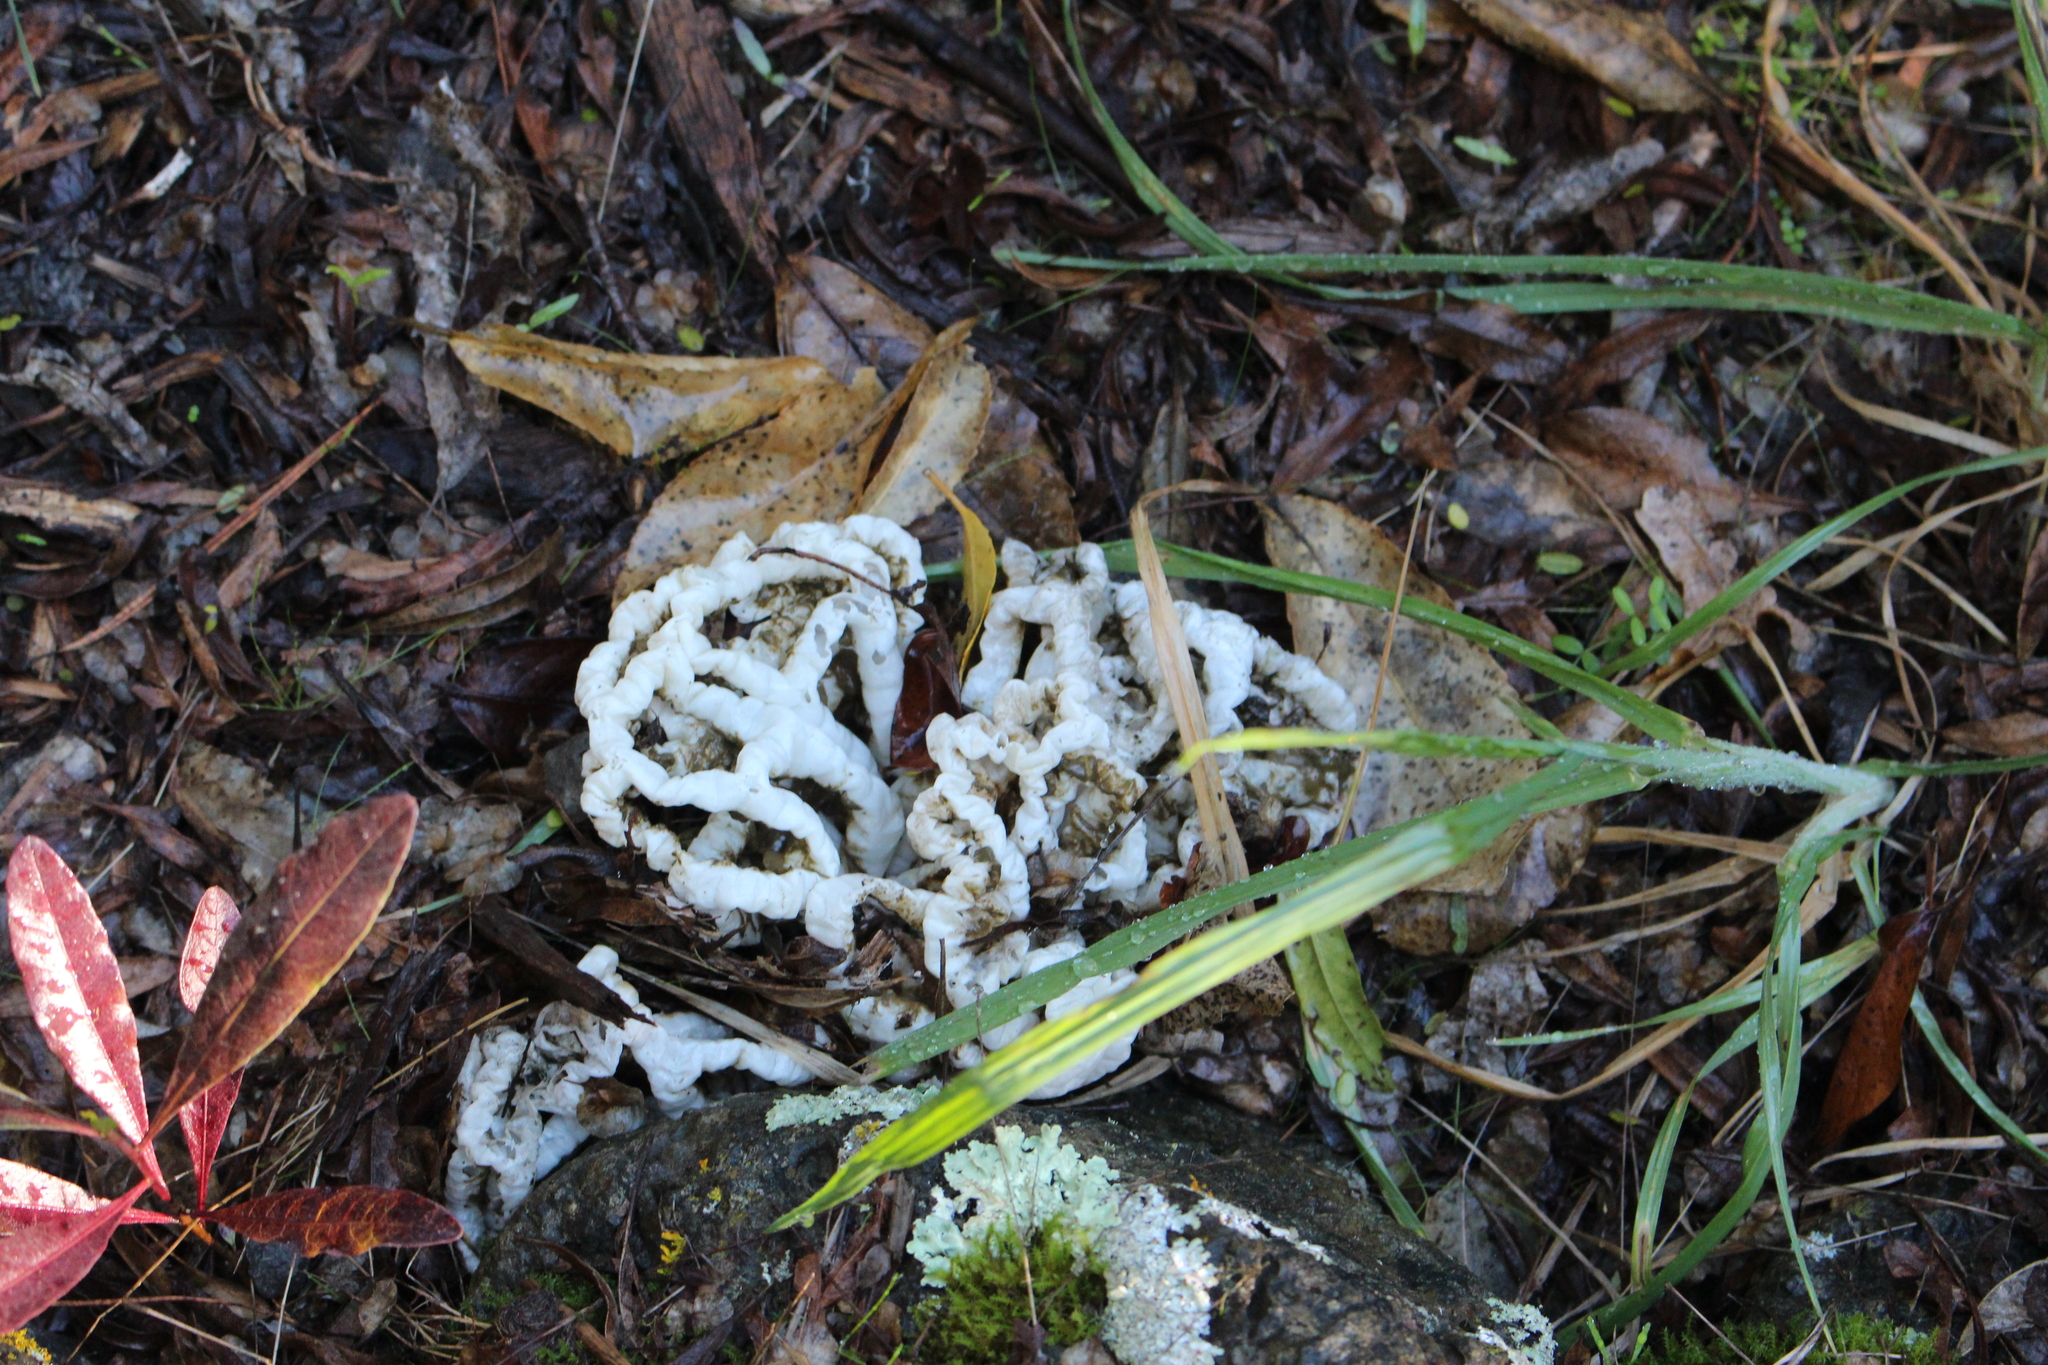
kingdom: Fungi
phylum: Basidiomycota
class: Agaricomycetes
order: Phallales
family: Phallaceae
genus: Ileodictyon
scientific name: Ileodictyon cibarium
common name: Basket fungus
